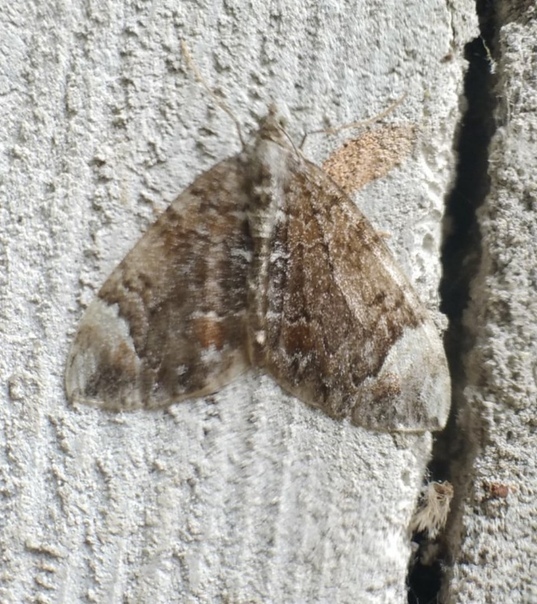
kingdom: Animalia
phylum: Arthropoda
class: Insecta
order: Lepidoptera
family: Geometridae
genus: Dysstroma
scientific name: Dysstroma truncata
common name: Common marbled carpet
